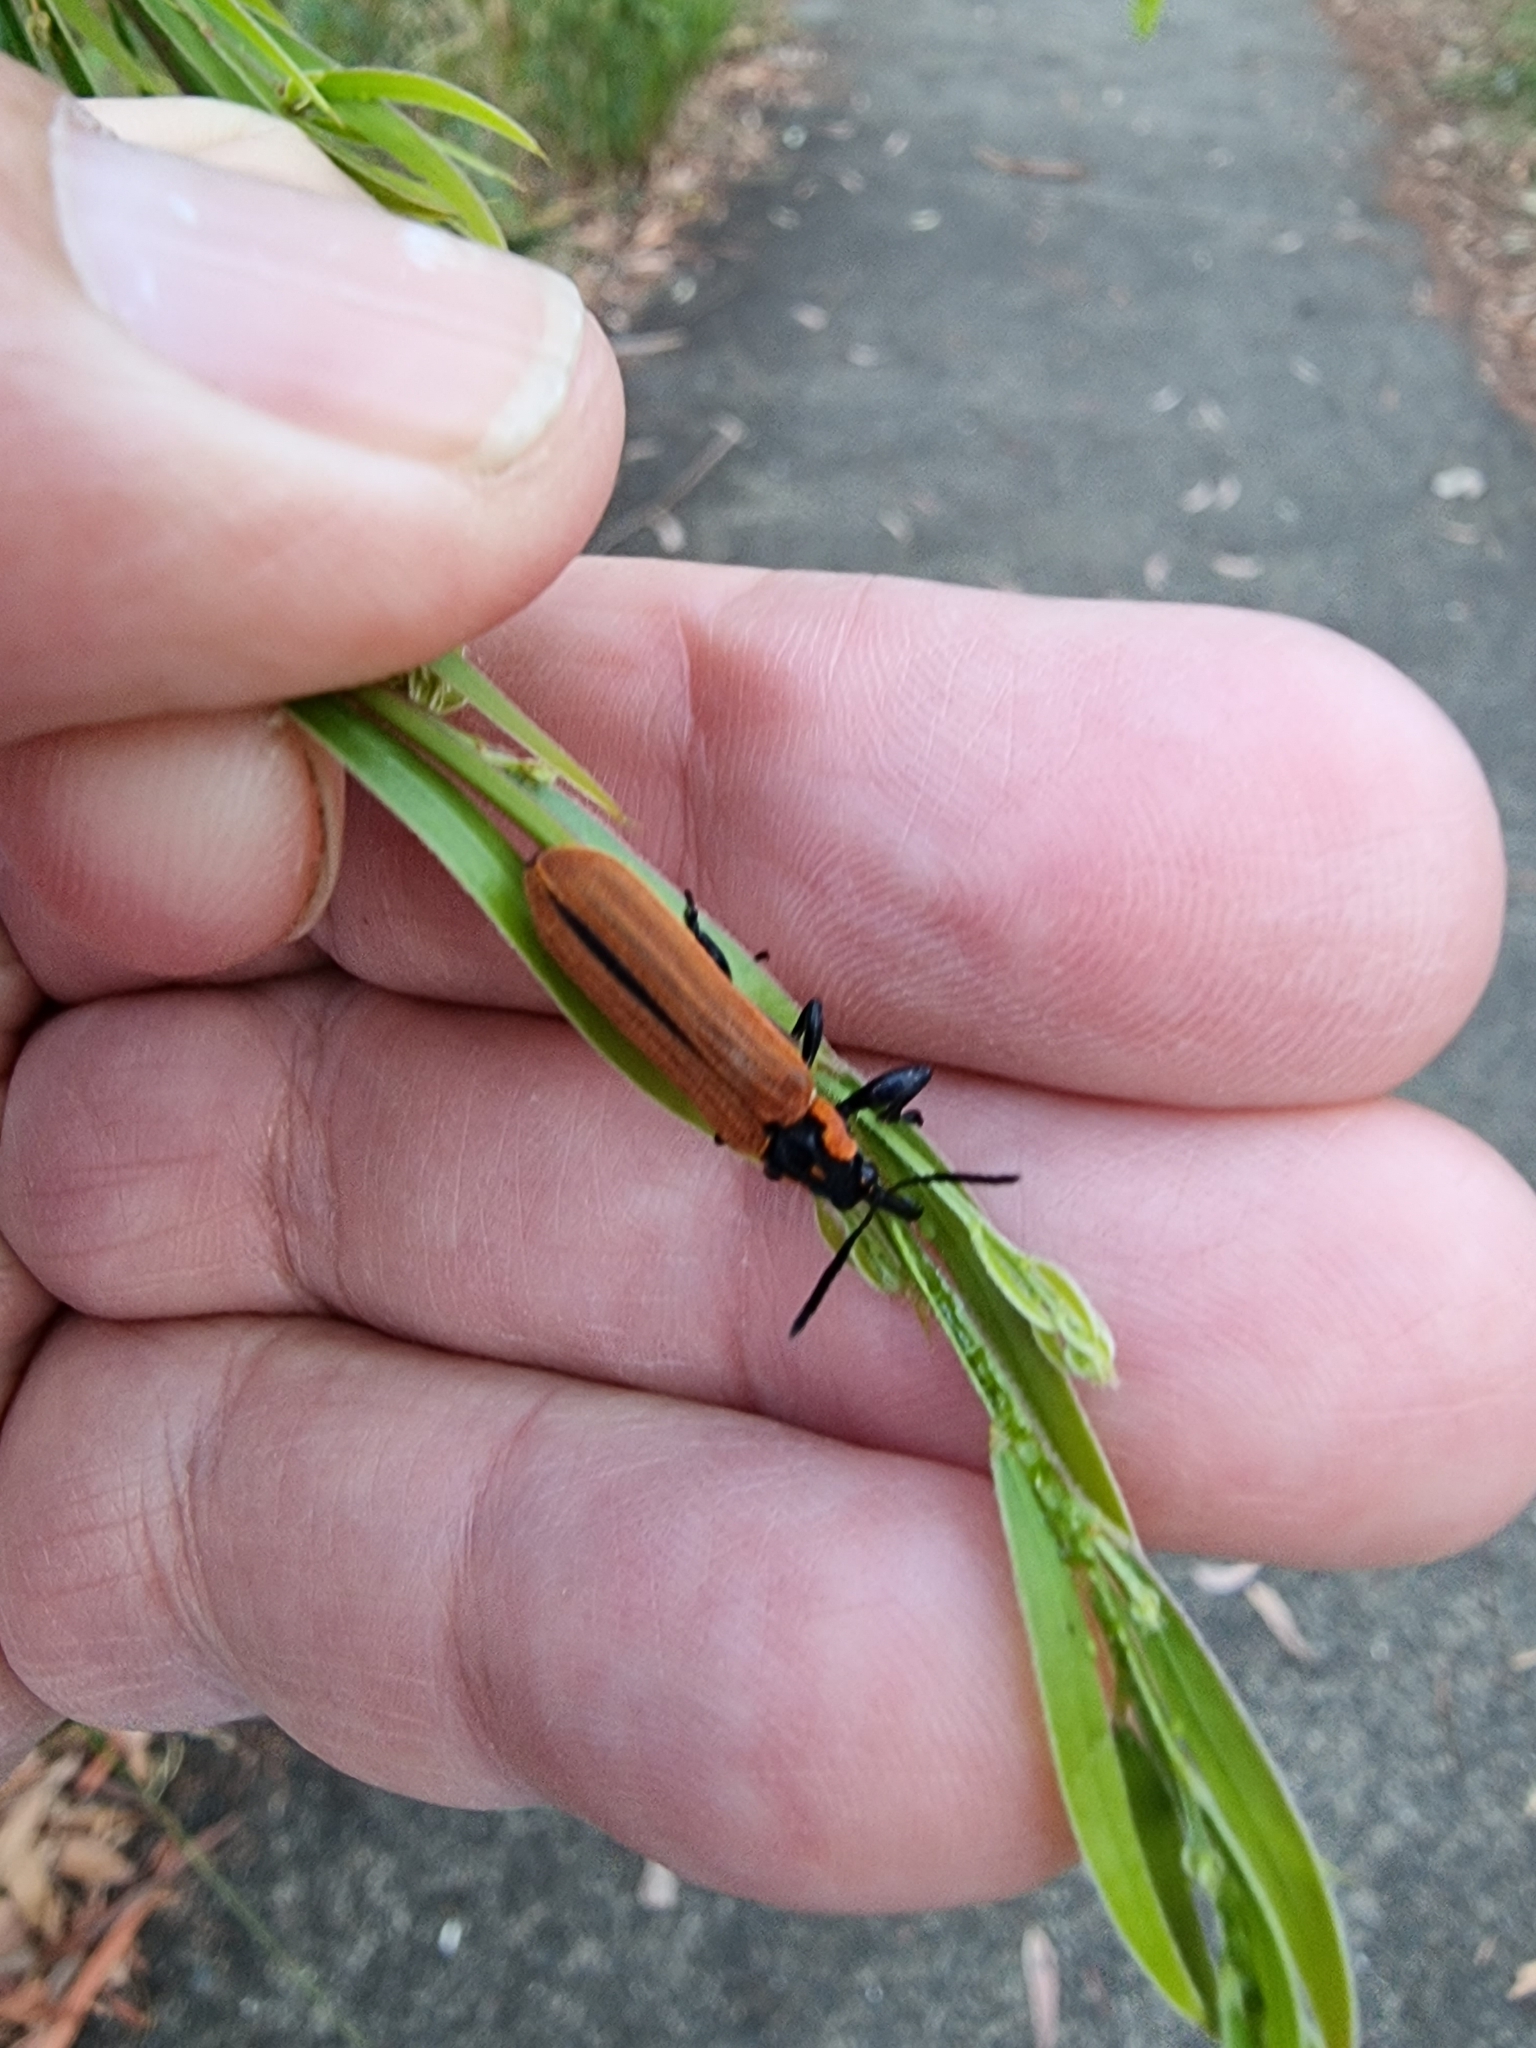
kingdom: Animalia
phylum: Arthropoda
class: Insecta
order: Coleoptera
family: Belidae
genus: Rhinotia
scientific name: Rhinotia haemoptera
